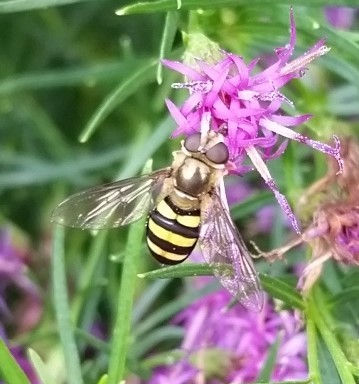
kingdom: Animalia
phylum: Arthropoda
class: Insecta
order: Diptera
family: Syrphidae
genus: Eupeodes
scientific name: Eupeodes
